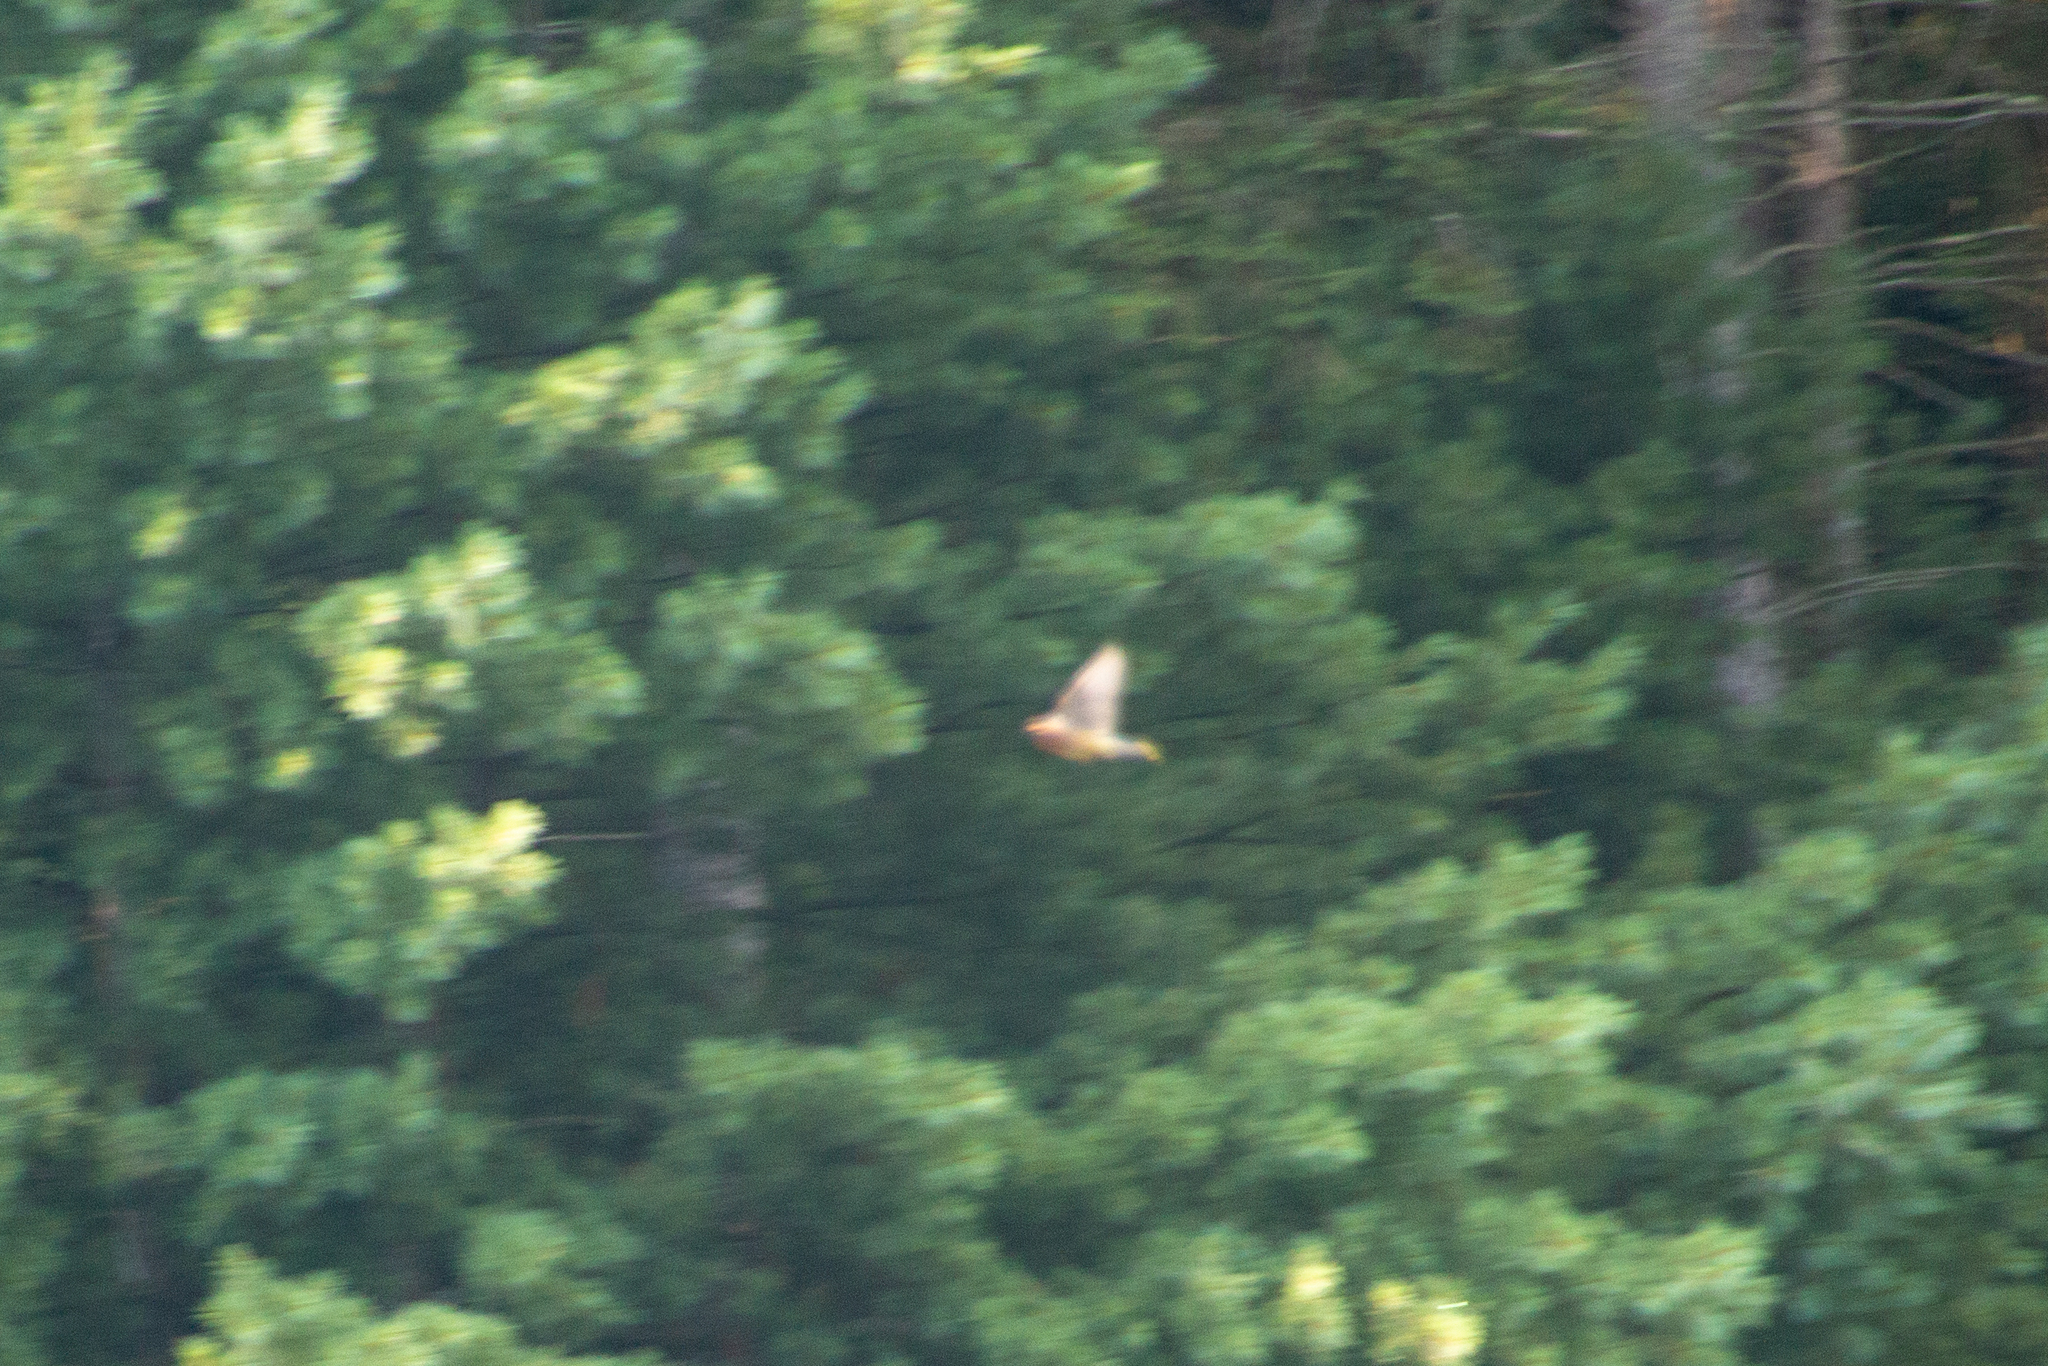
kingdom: Animalia
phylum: Chordata
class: Aves
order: Passeriformes
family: Bombycillidae
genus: Bombycilla
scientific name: Bombycilla cedrorum
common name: Cedar waxwing
